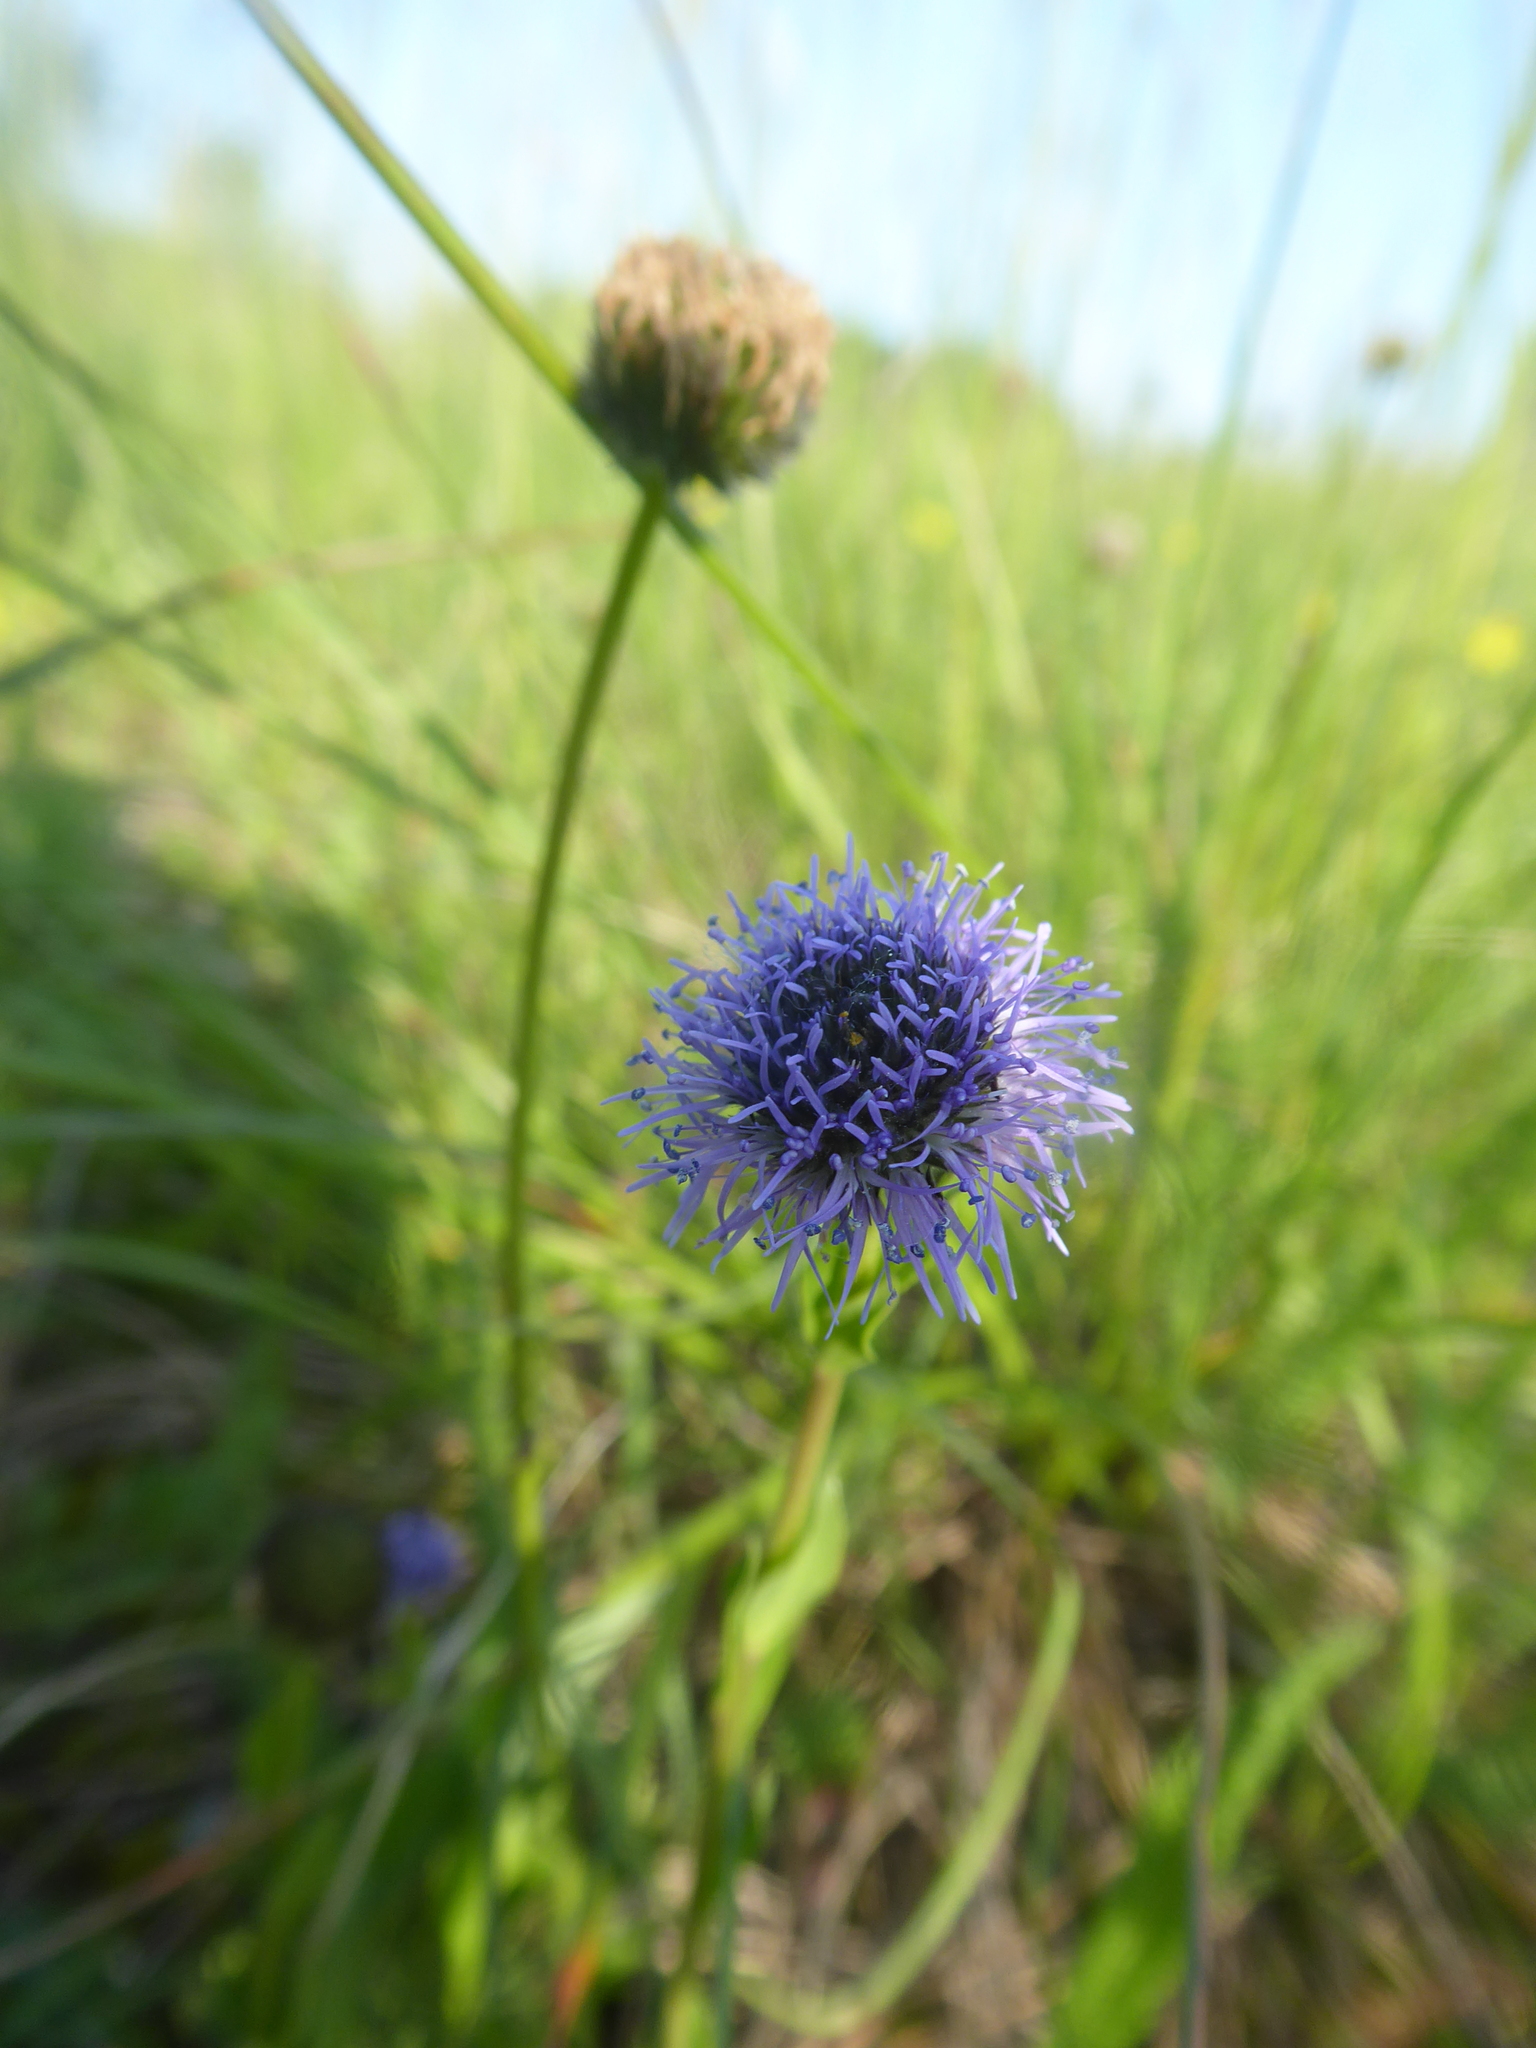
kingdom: Plantae
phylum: Tracheophyta
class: Magnoliopsida
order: Lamiales
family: Plantaginaceae
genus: Globularia
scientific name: Globularia bisnagarica
